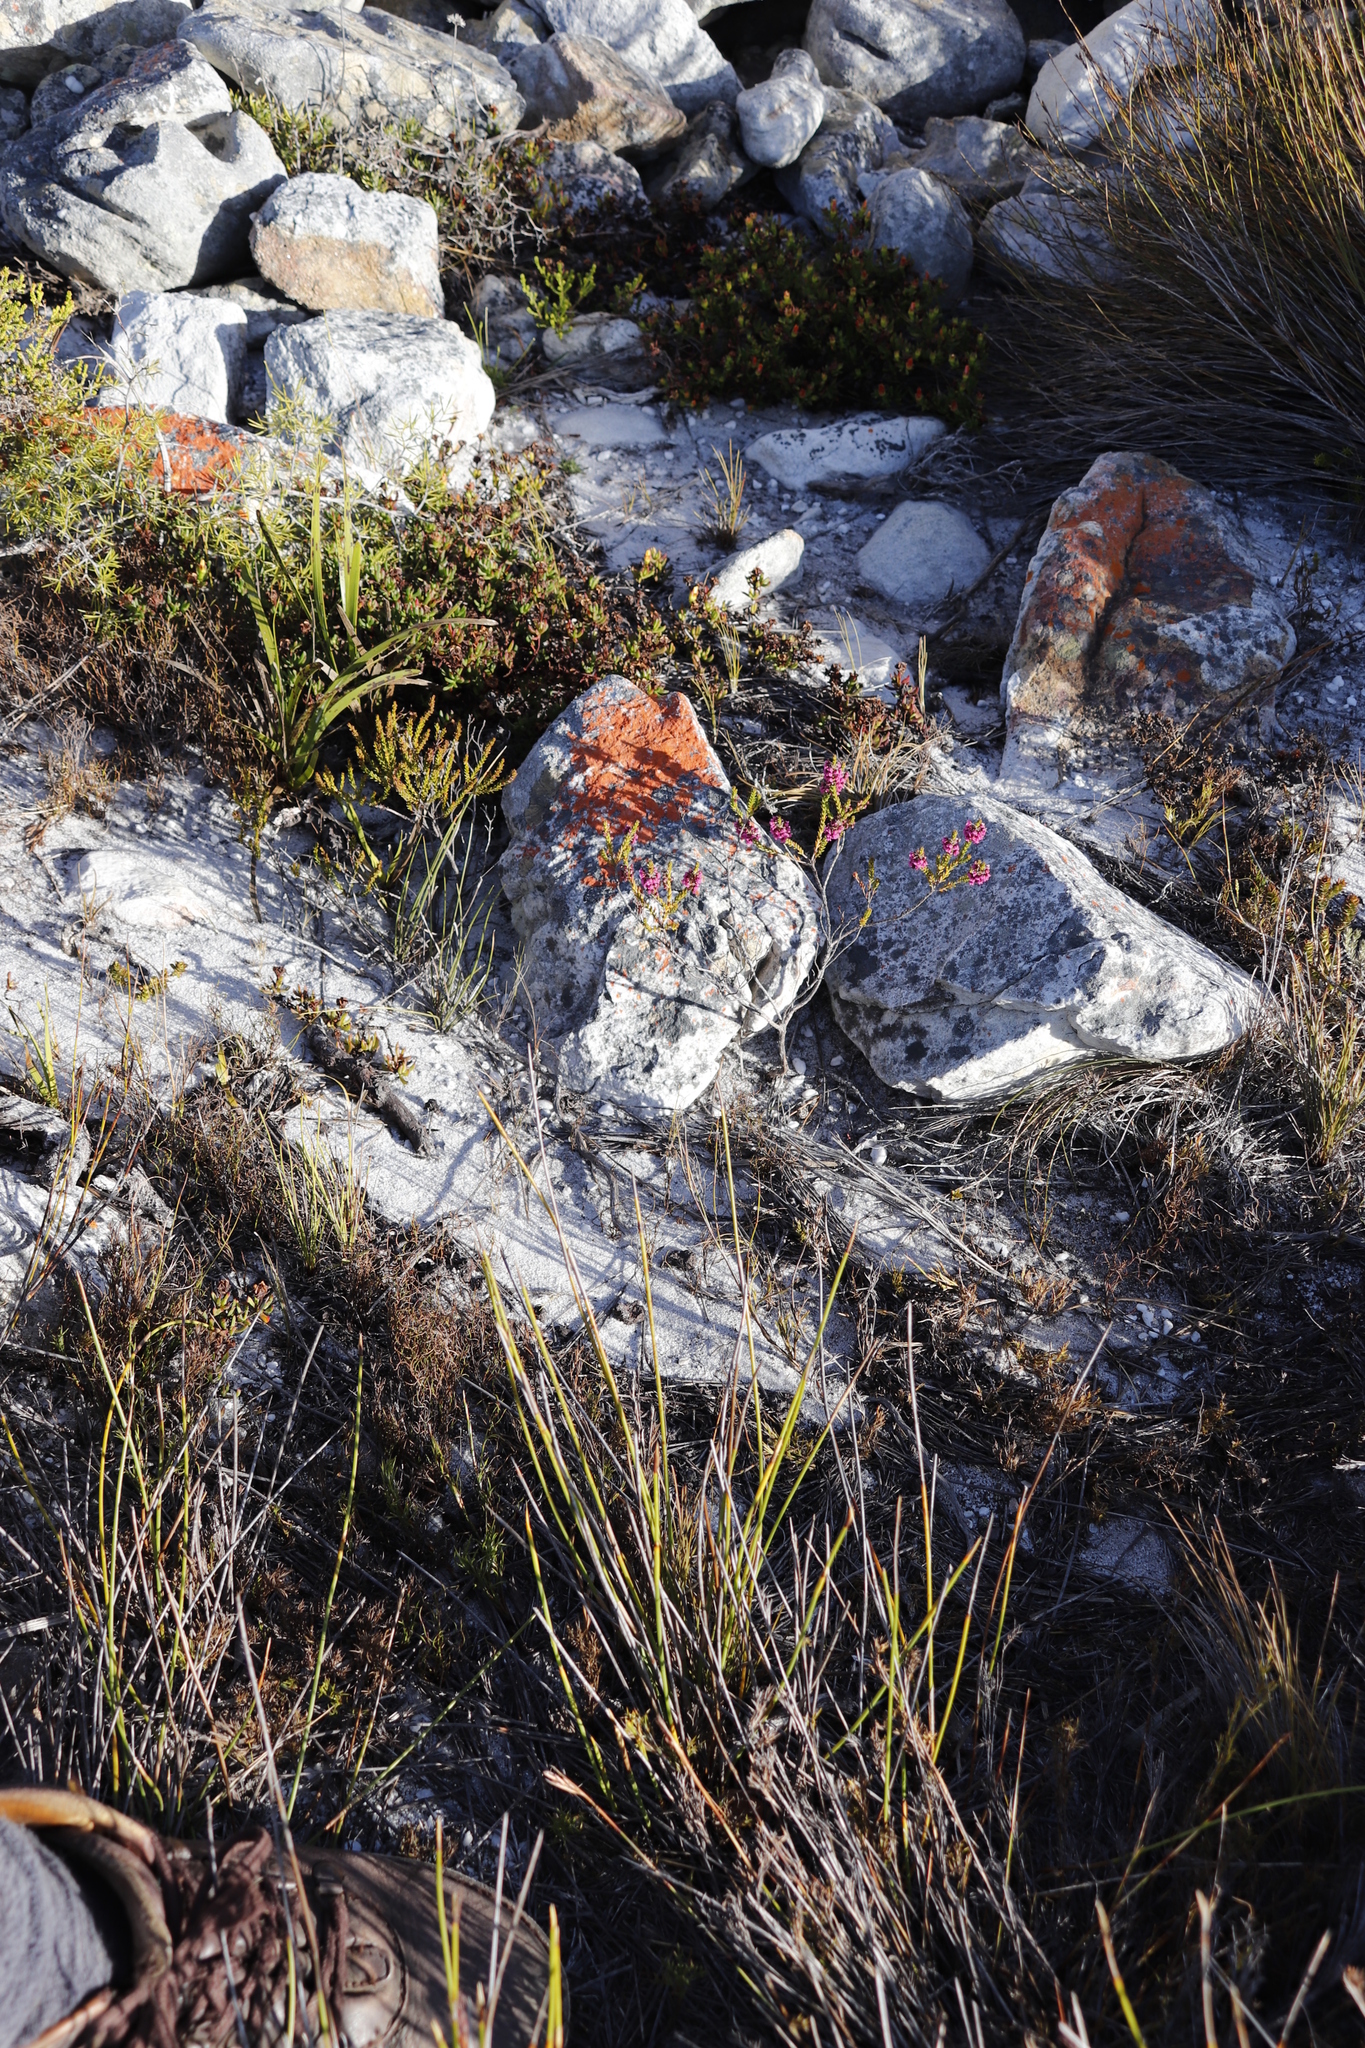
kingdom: Plantae
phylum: Tracheophyta
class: Magnoliopsida
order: Ericales
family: Ericaceae
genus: Erica
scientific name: Erica pulchella
